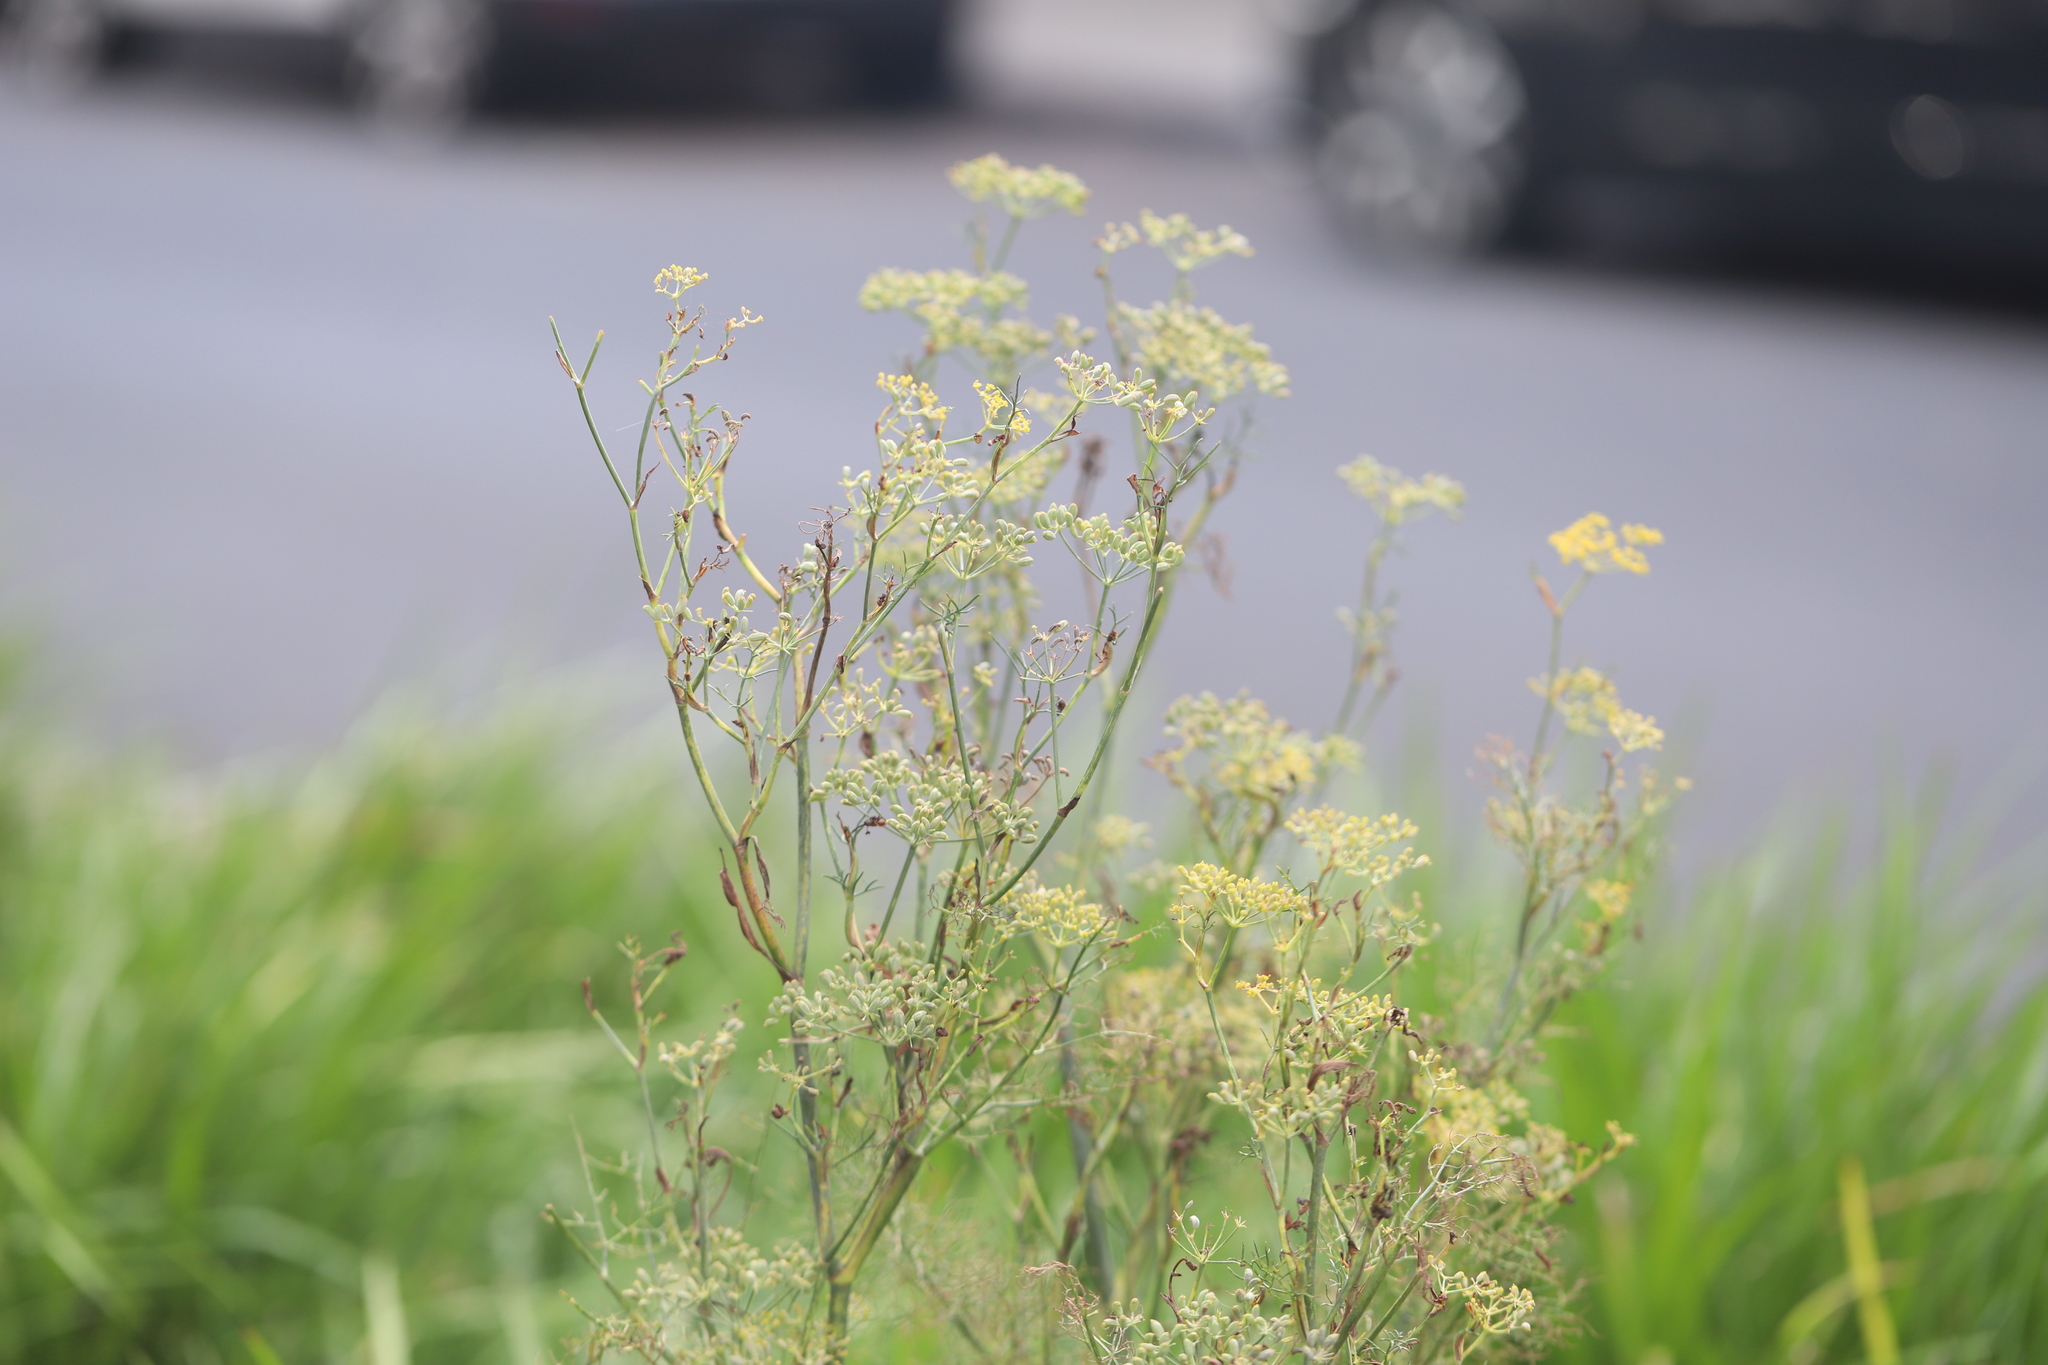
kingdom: Plantae
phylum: Tracheophyta
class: Magnoliopsida
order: Apiales
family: Apiaceae
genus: Foeniculum
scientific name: Foeniculum vulgare
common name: Fennel
